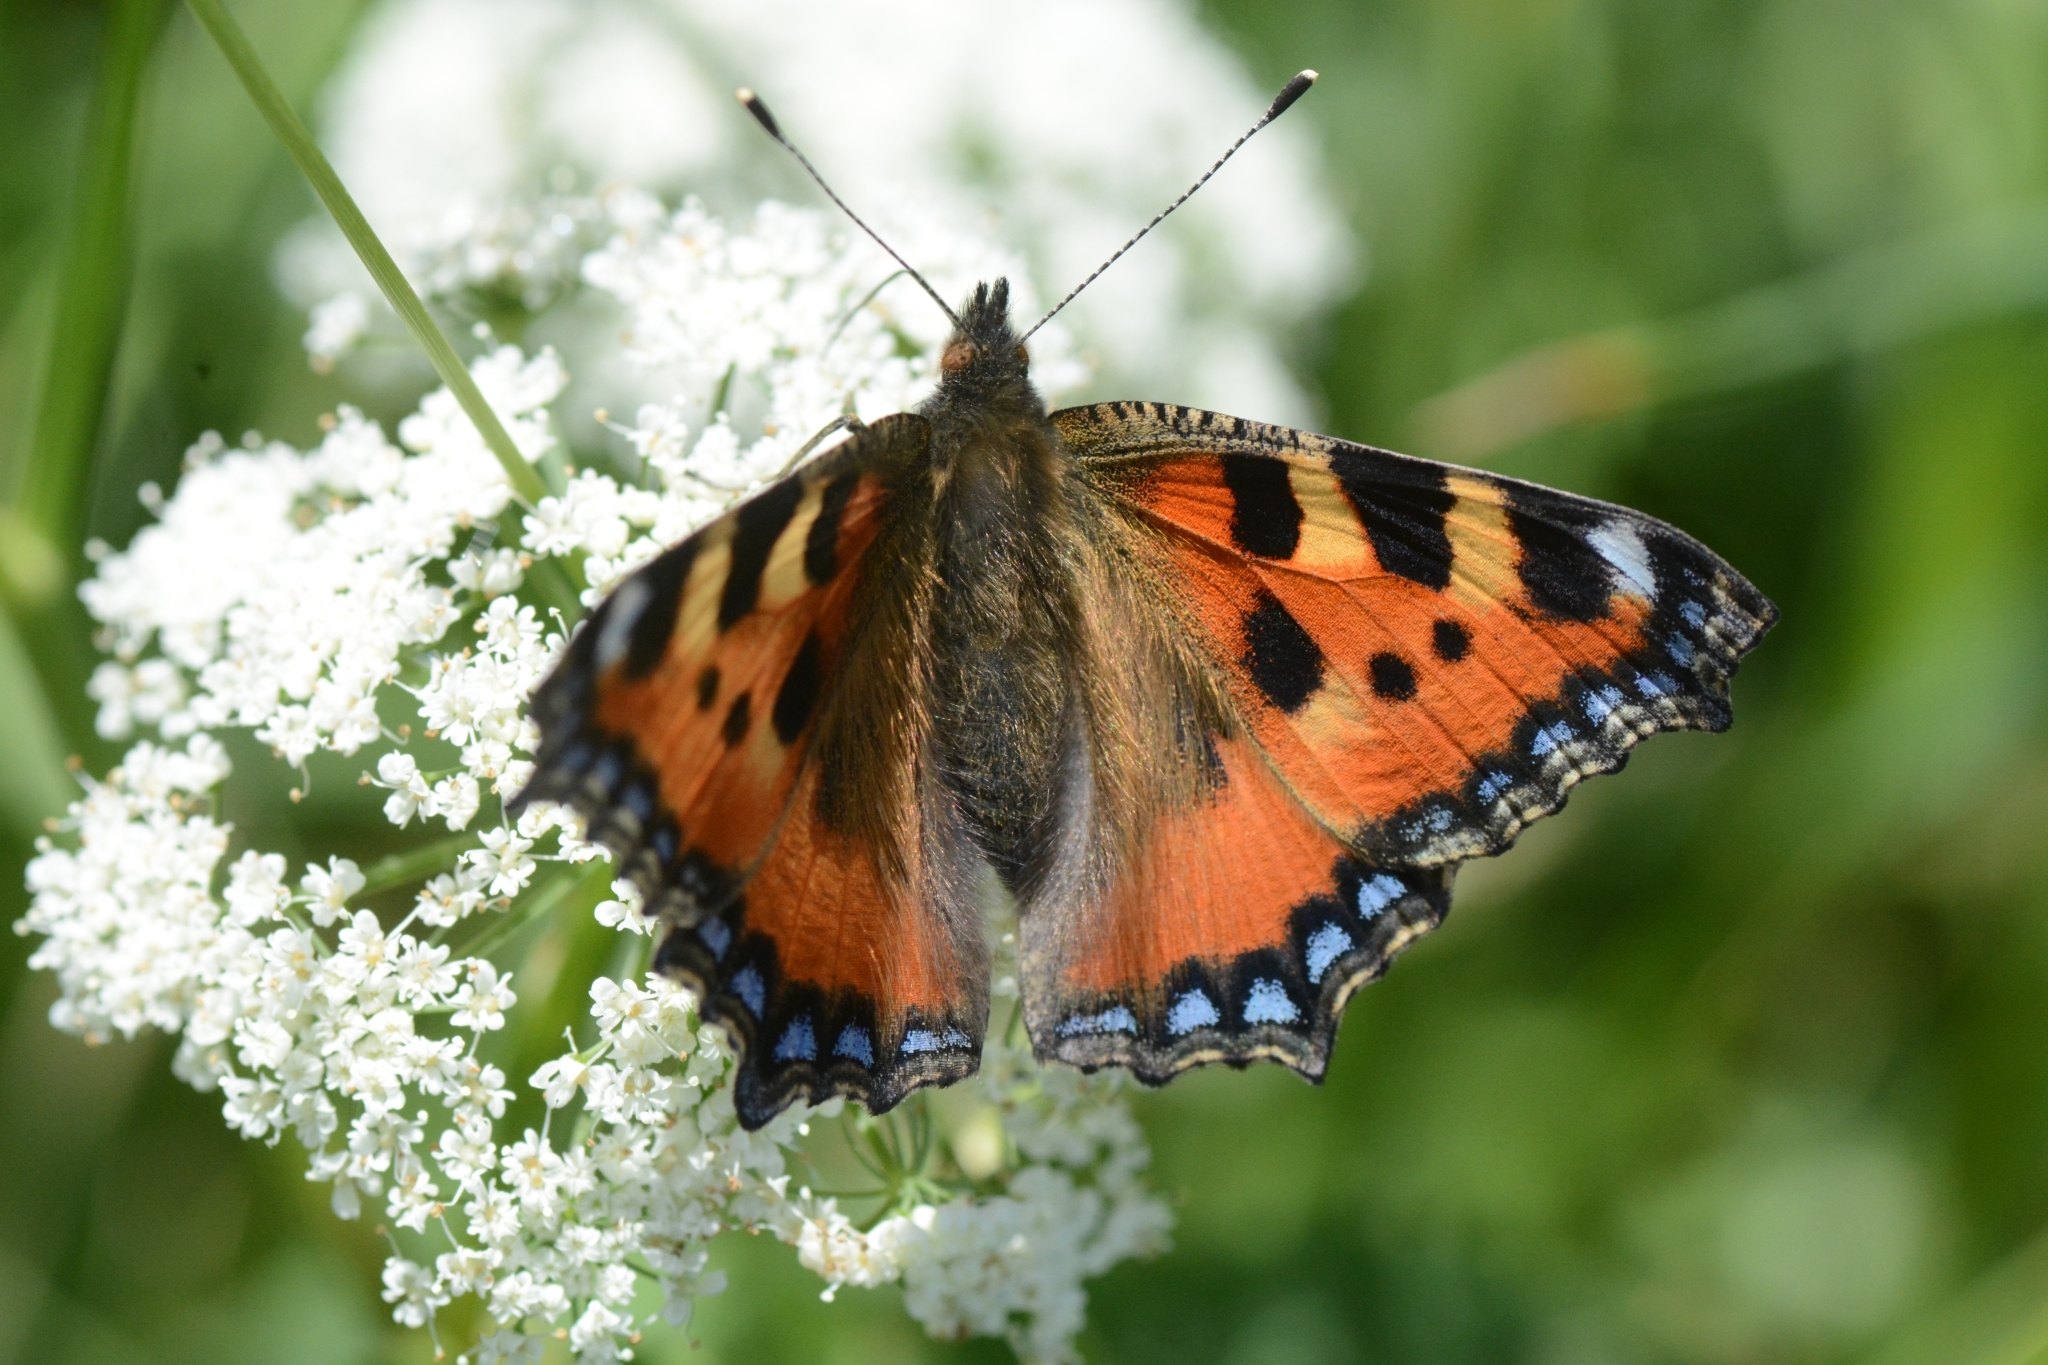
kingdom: Animalia
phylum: Arthropoda
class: Insecta
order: Lepidoptera
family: Nymphalidae
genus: Aglais
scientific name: Aglais urticae
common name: Small tortoiseshell
